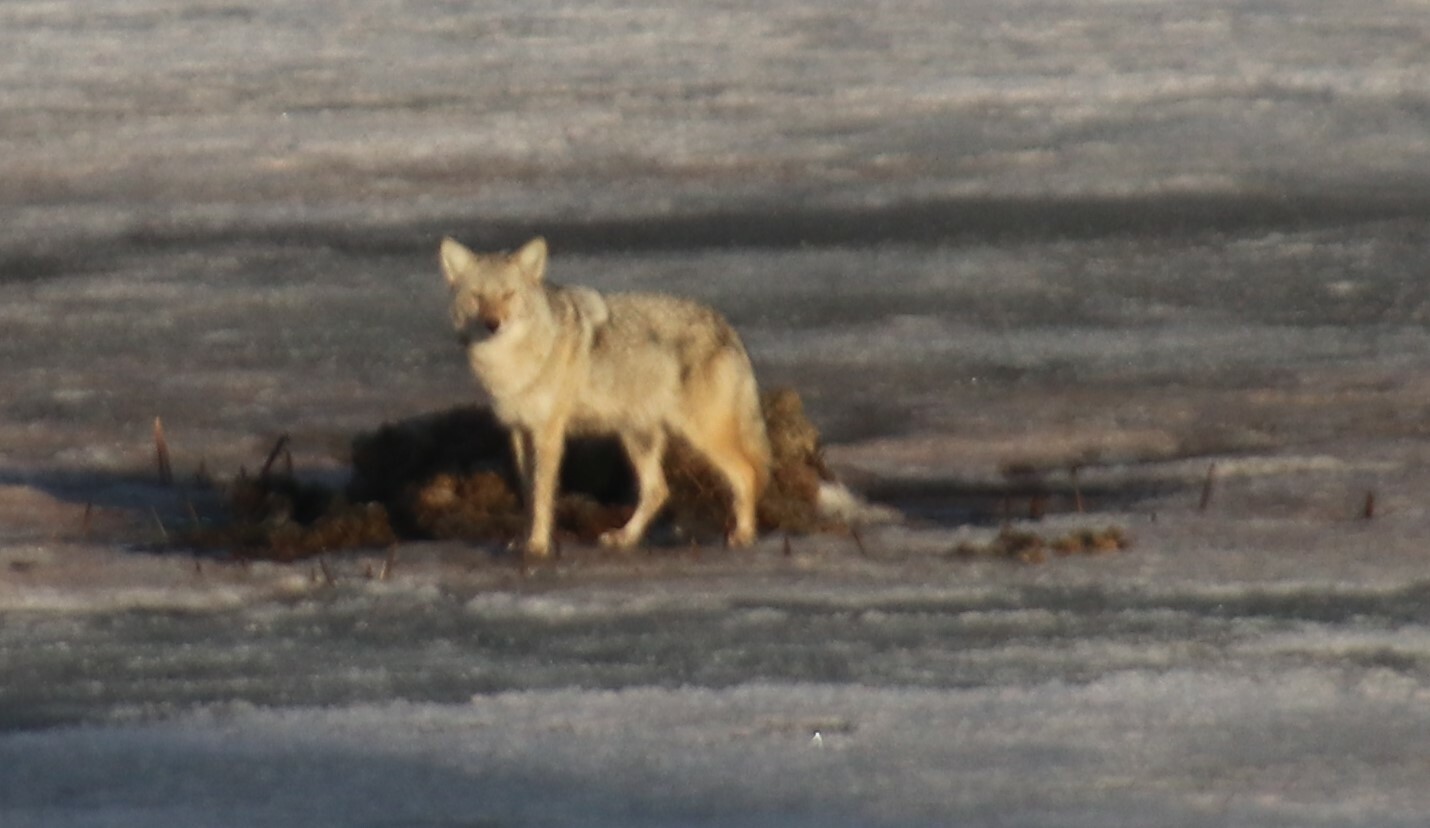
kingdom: Animalia
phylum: Chordata
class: Mammalia
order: Carnivora
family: Canidae
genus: Canis
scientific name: Canis latrans
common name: Coyote
